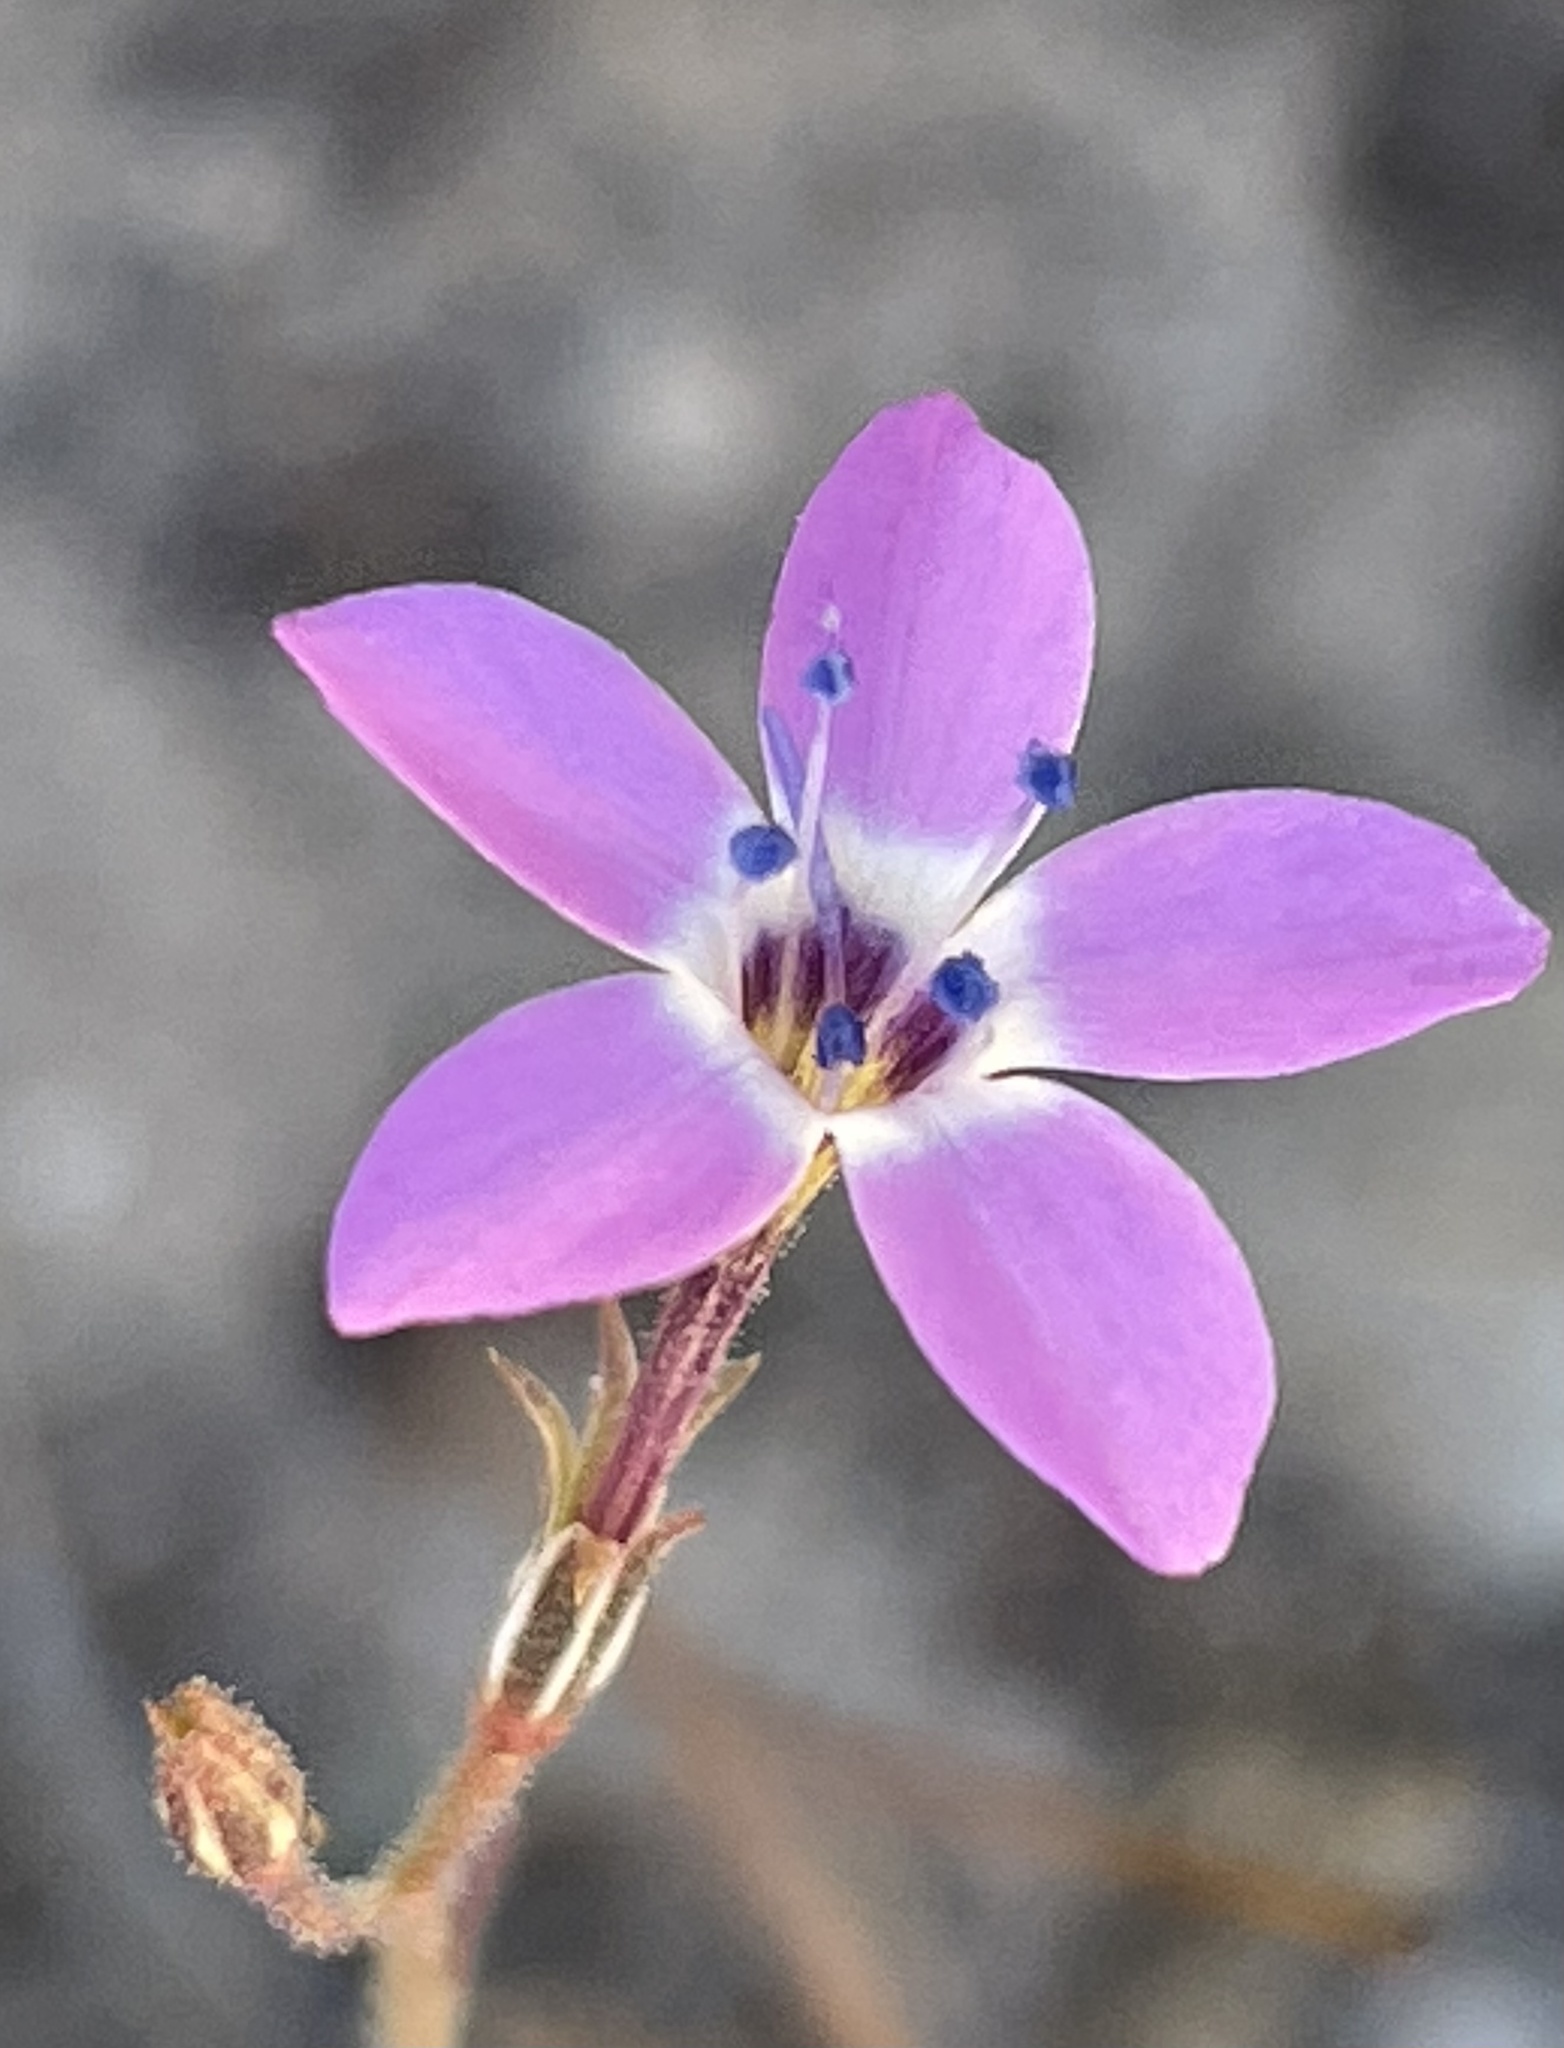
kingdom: Plantae
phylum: Tracheophyta
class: Magnoliopsida
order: Ericales
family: Polemoniaceae
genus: Gilia
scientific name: Gilia tenuiflora
